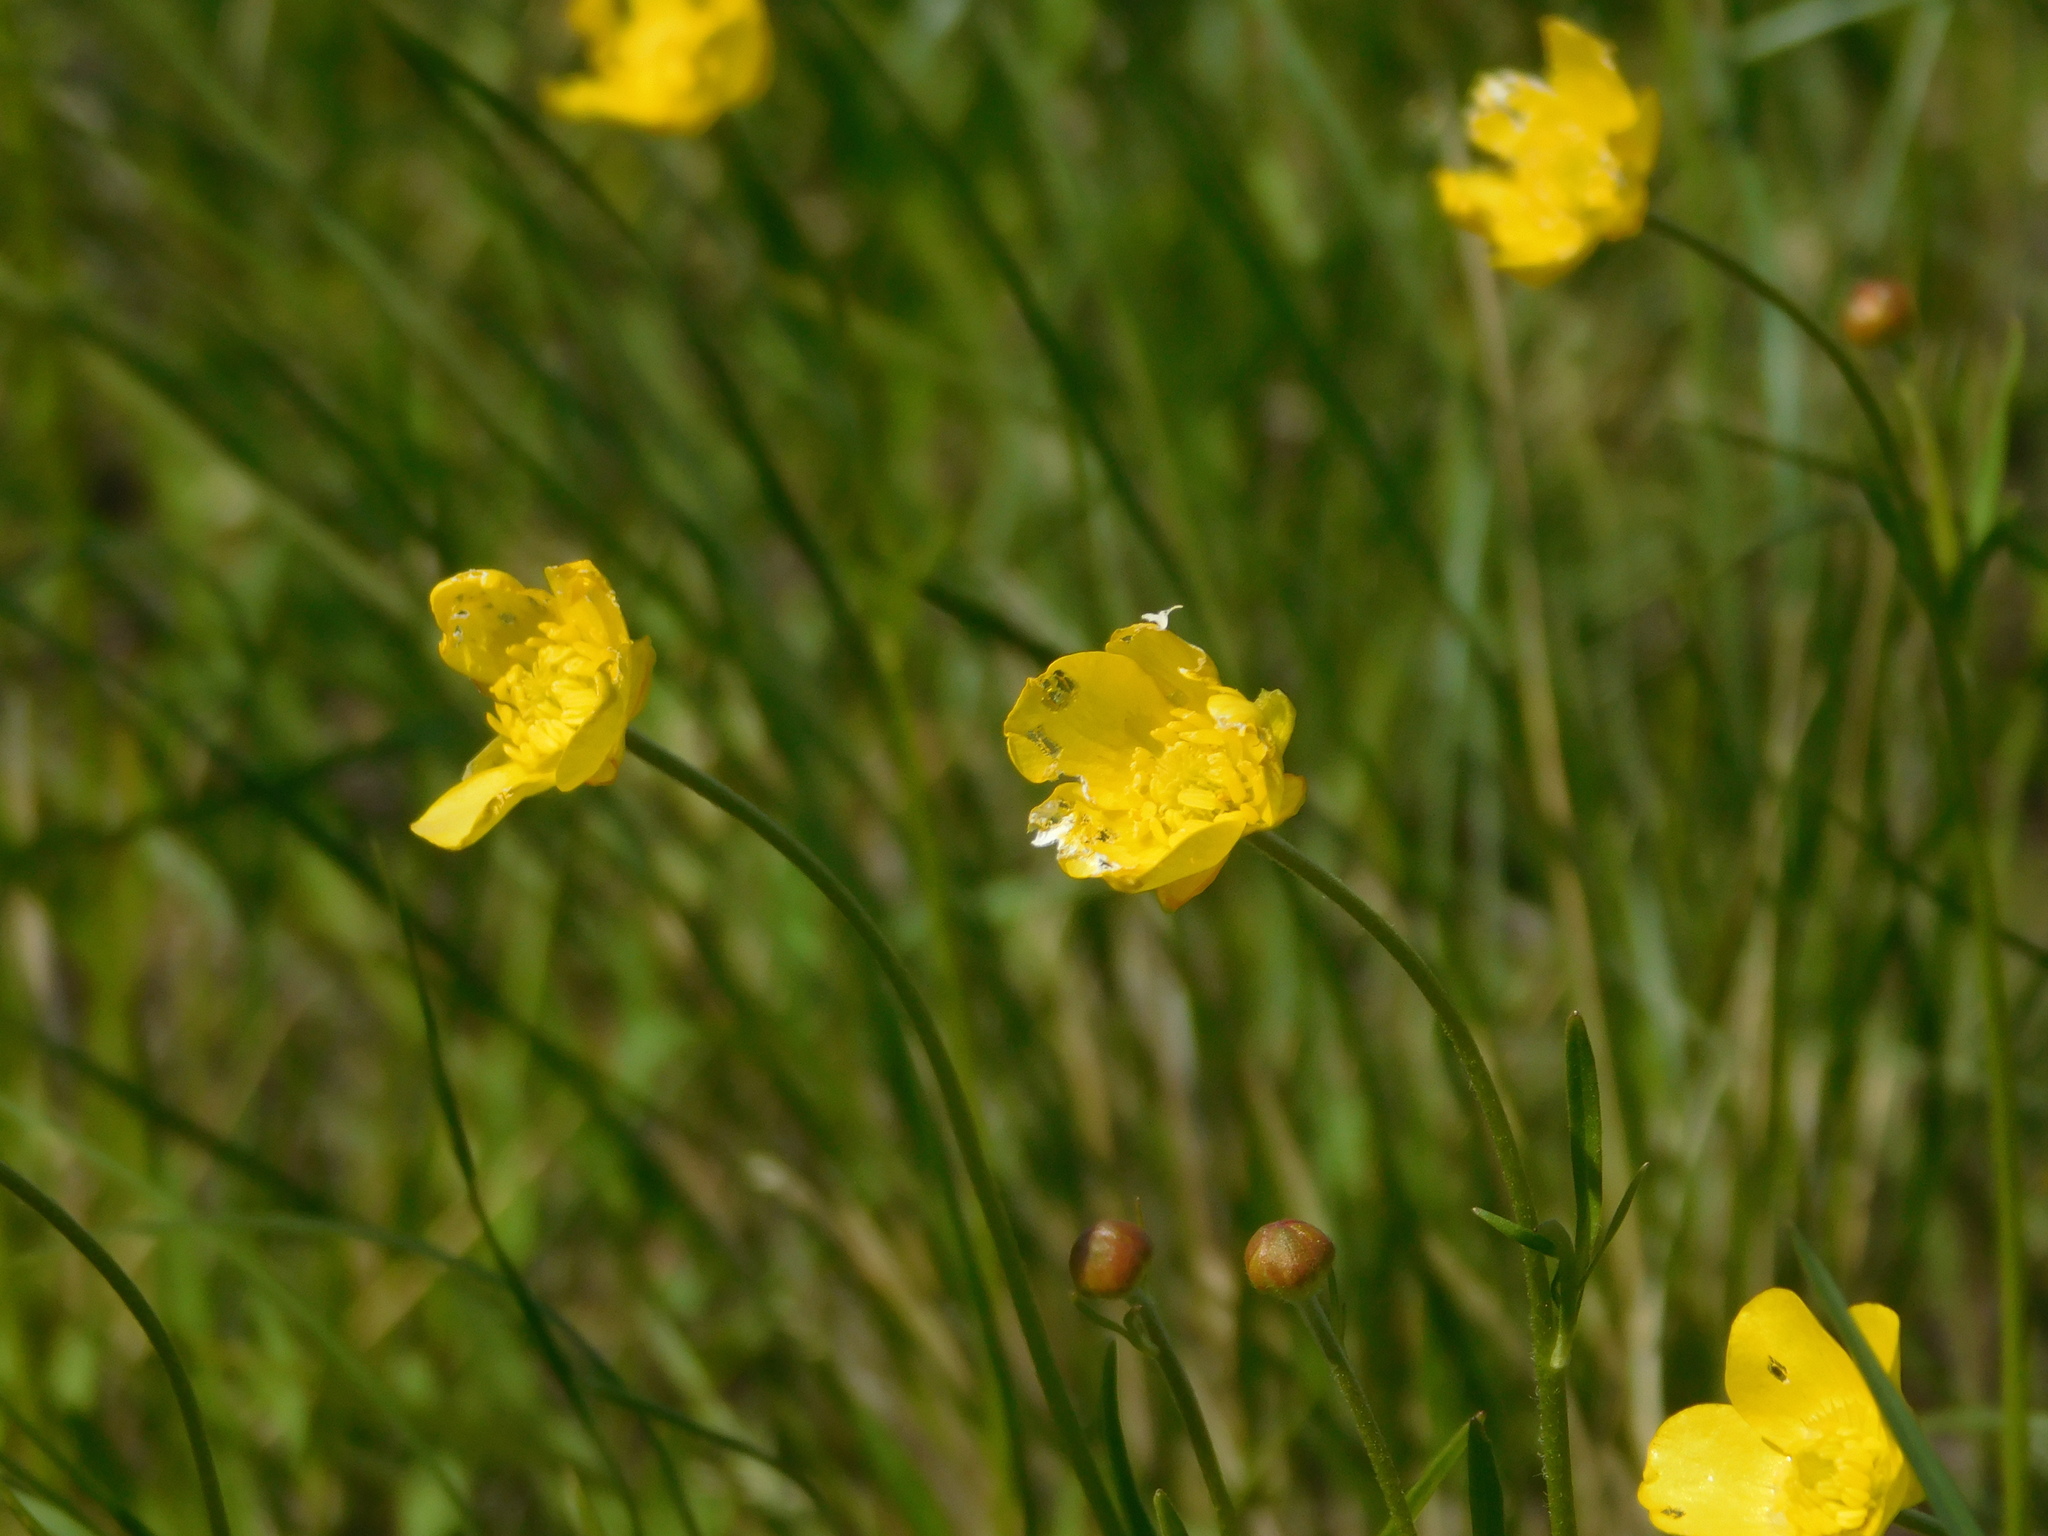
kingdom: Plantae
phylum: Tracheophyta
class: Magnoliopsida
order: Ranunculales
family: Ranunculaceae
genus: Ranunculus
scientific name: Ranunculus pedatus
